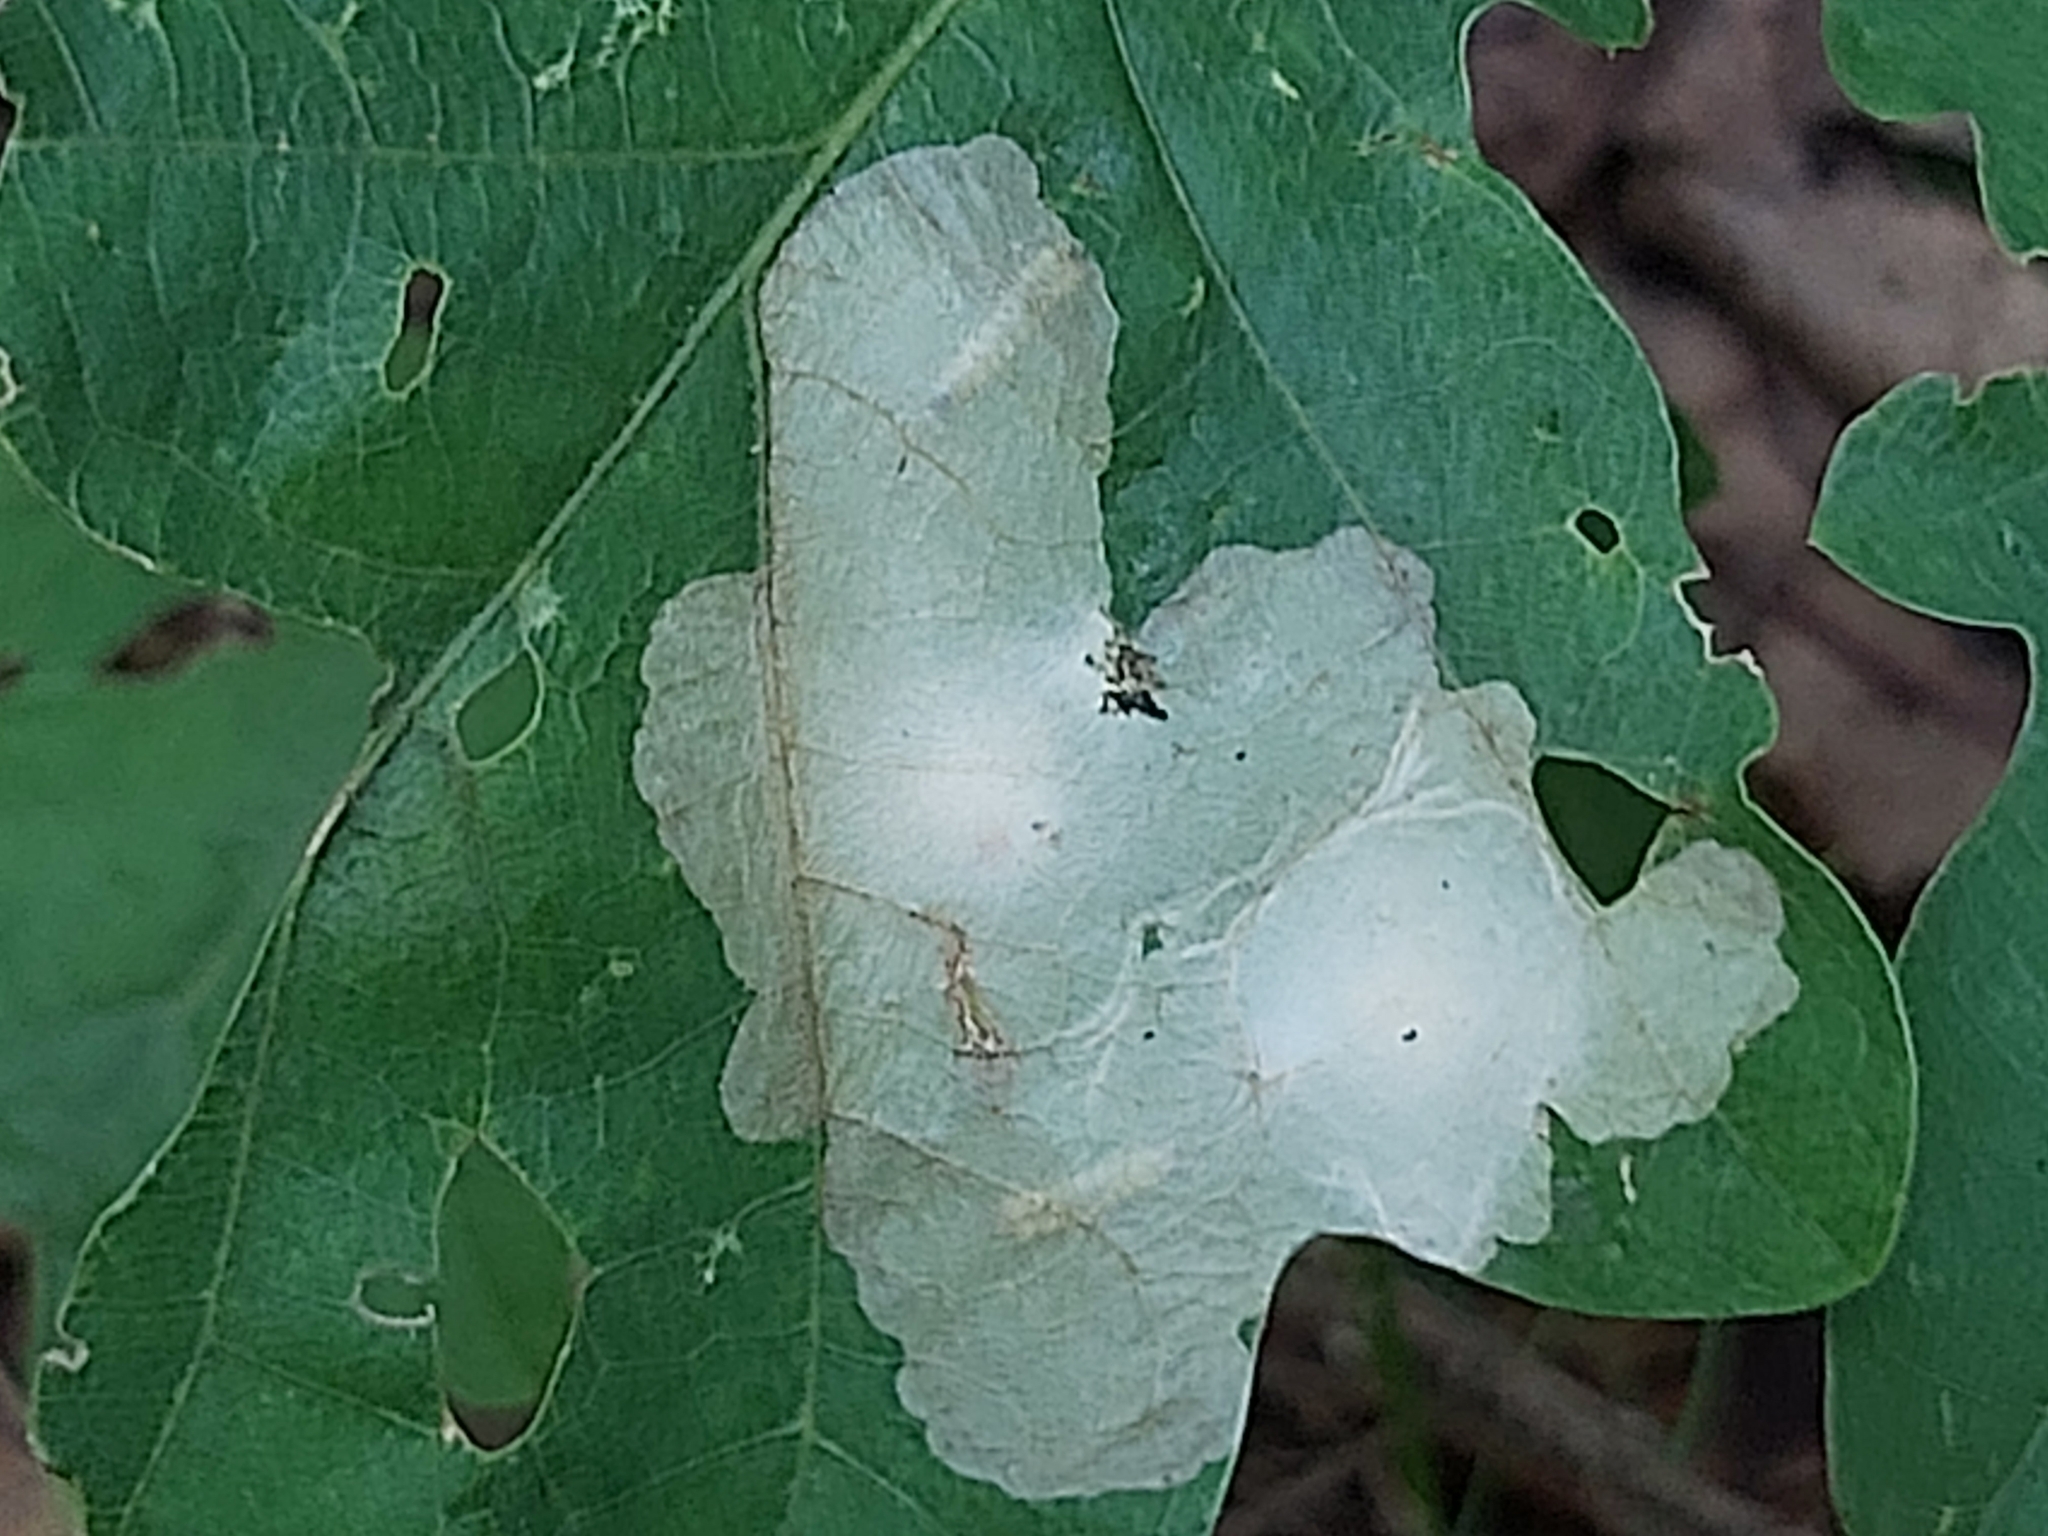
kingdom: Animalia
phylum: Arthropoda
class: Insecta
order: Lepidoptera
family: Tischeriidae
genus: Tischeria
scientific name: Tischeria ekebladella
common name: Oak carl
